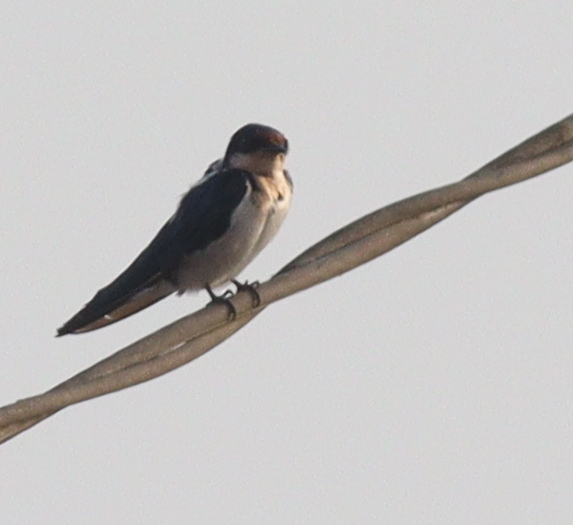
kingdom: Animalia
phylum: Chordata
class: Aves
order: Passeriformes
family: Hirundinidae
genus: Hirundo
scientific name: Hirundo aethiopica
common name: Ethiopian swallow
